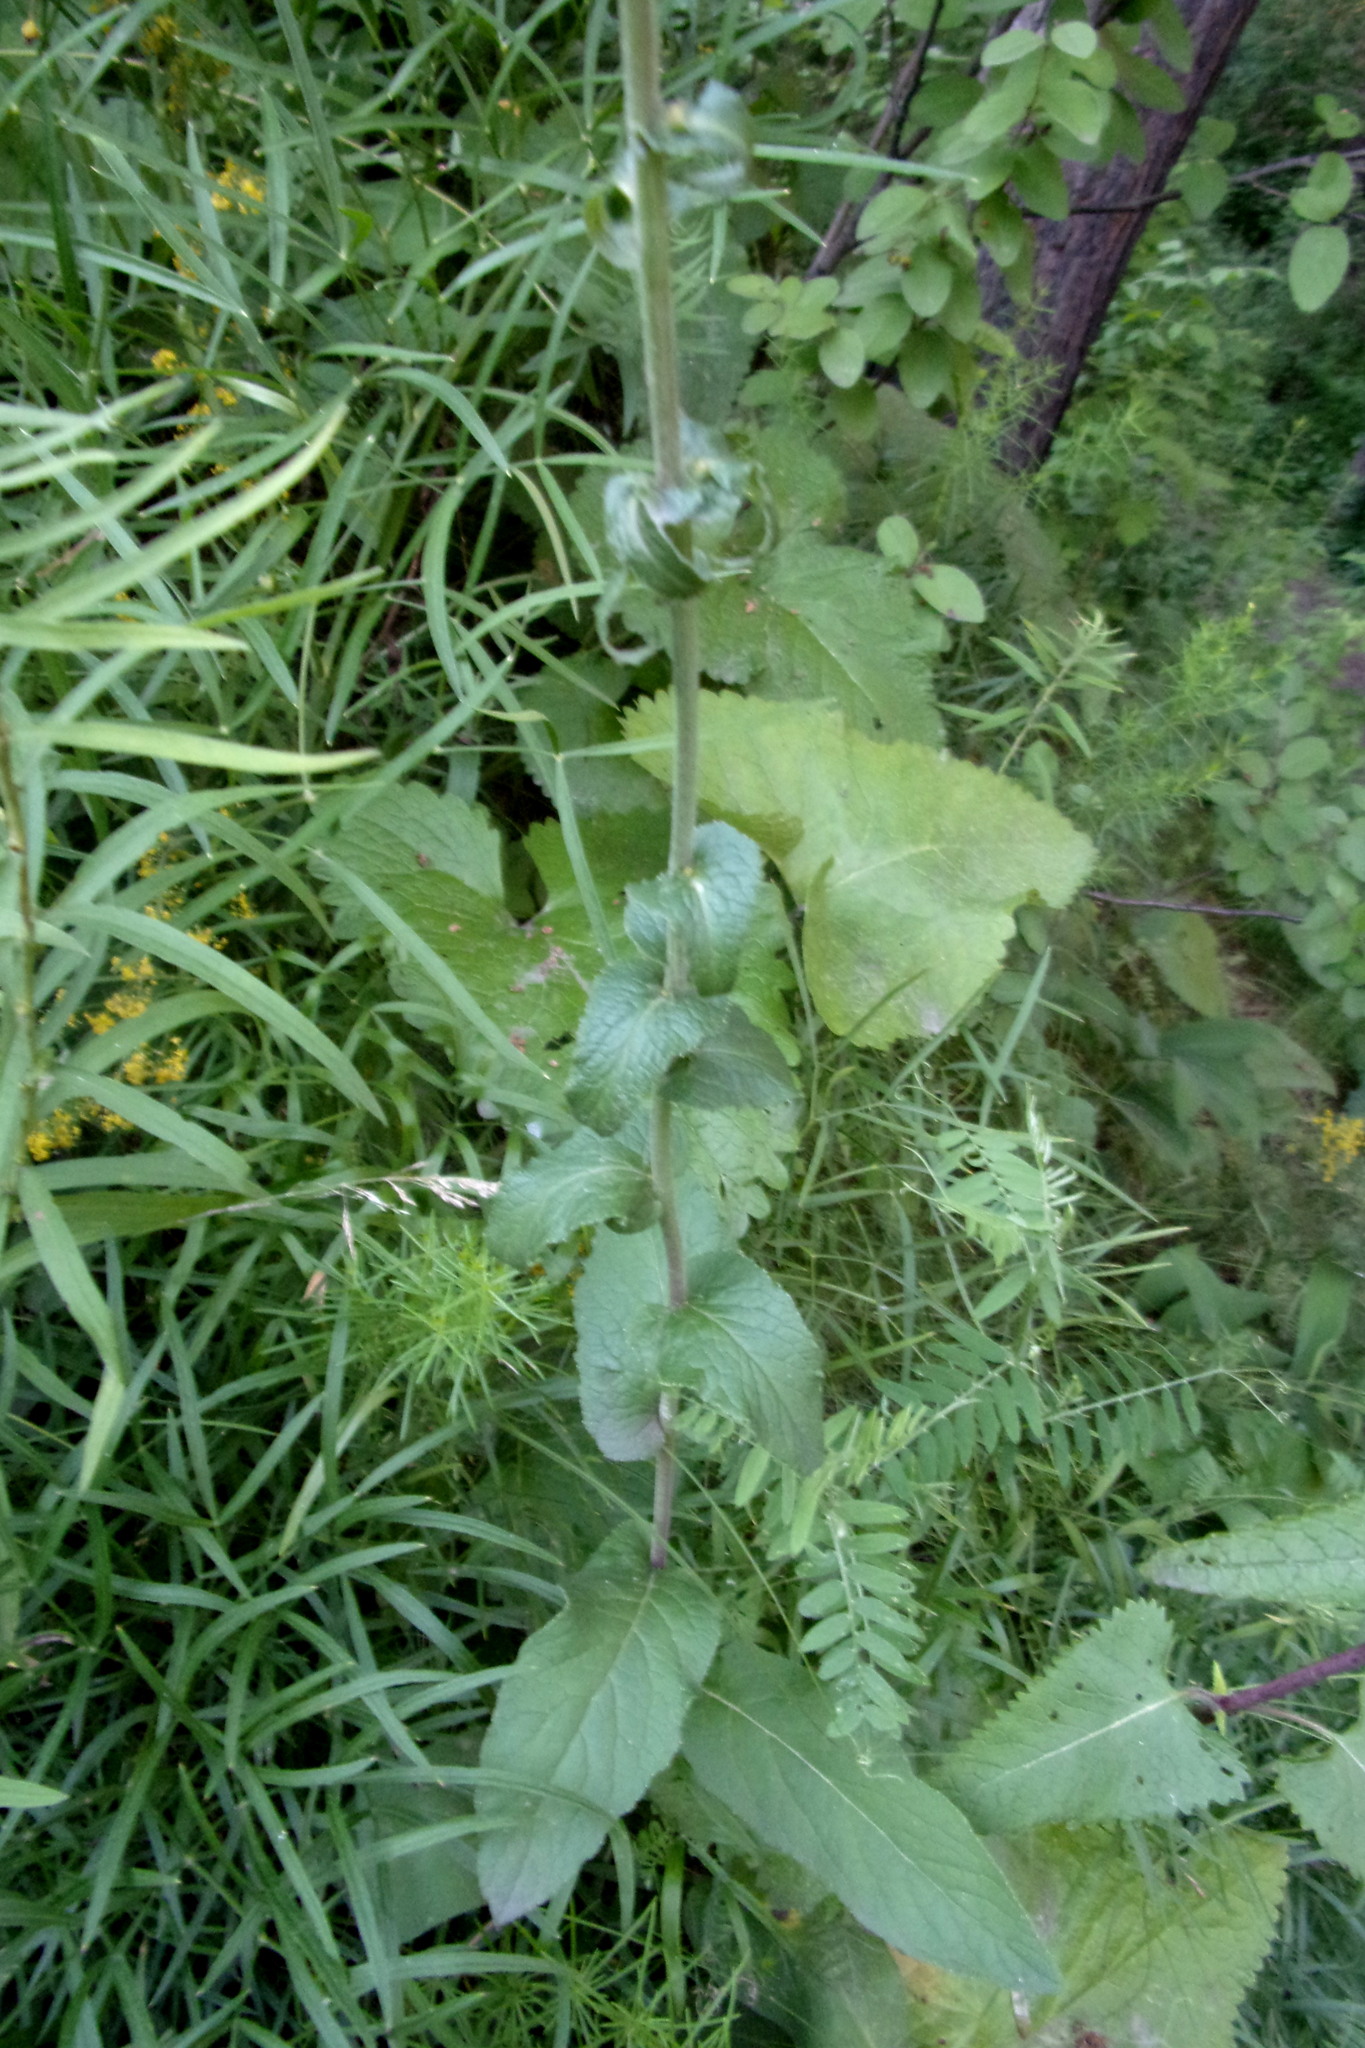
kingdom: Plantae
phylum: Tracheophyta
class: Magnoliopsida
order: Asterales
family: Campanulaceae
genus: Campanula
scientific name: Campanula bononiensis
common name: Pale bellflower
